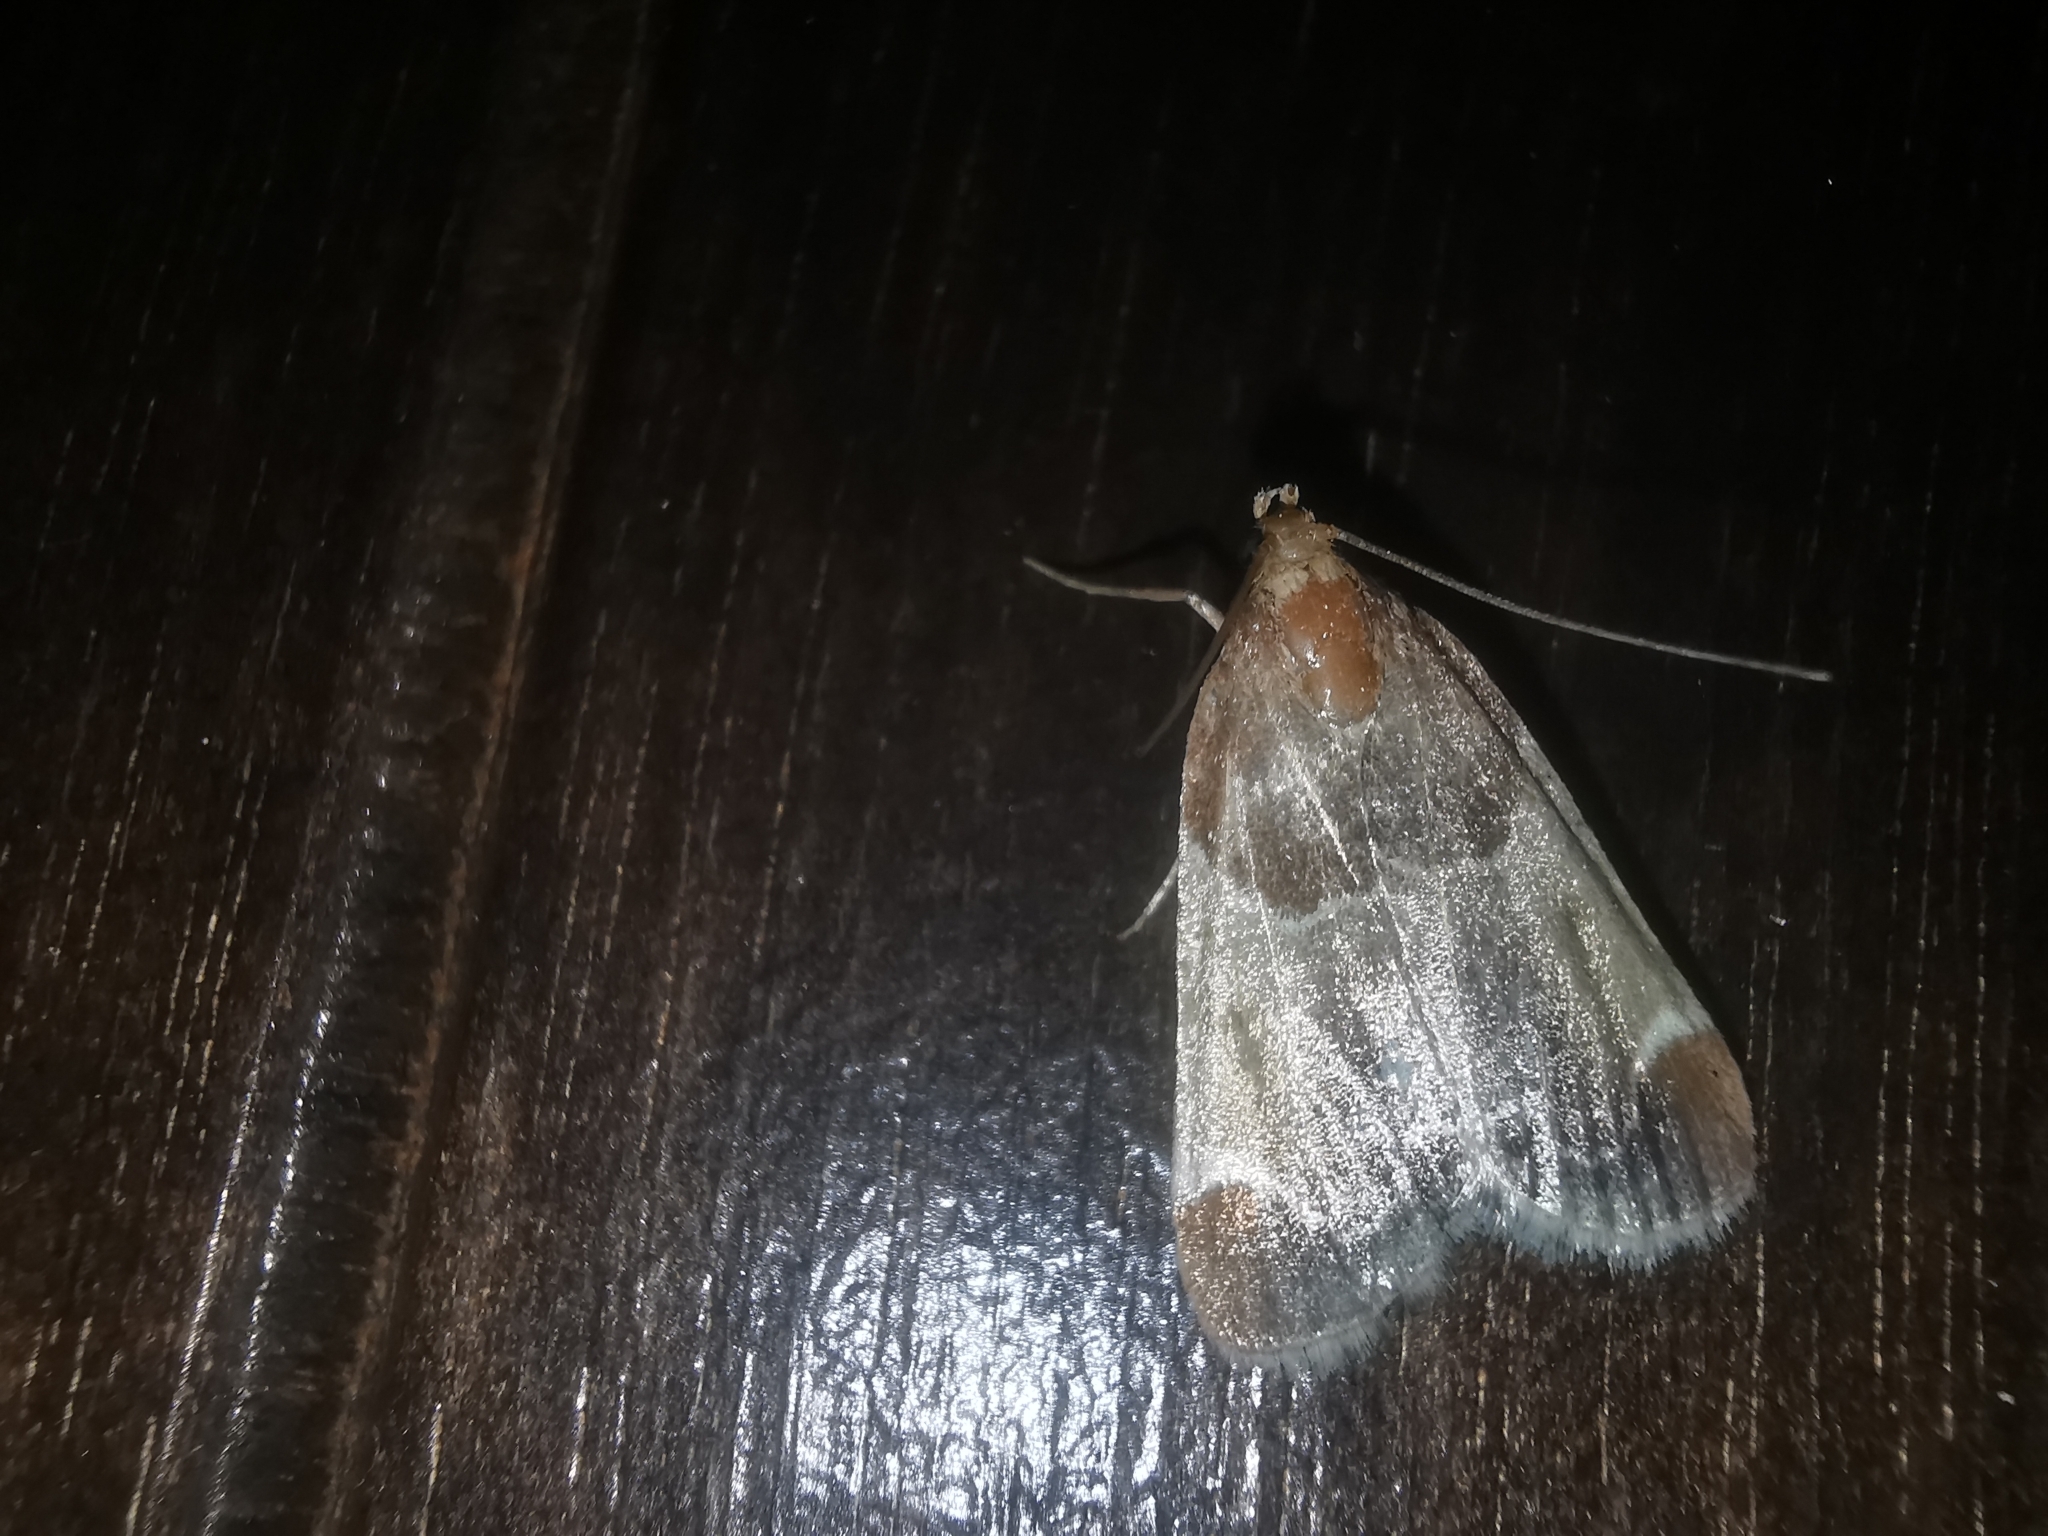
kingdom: Animalia
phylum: Arthropoda
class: Insecta
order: Lepidoptera
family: Pyralidae
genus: Pyralis
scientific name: Pyralis farinalis
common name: Meal moth
